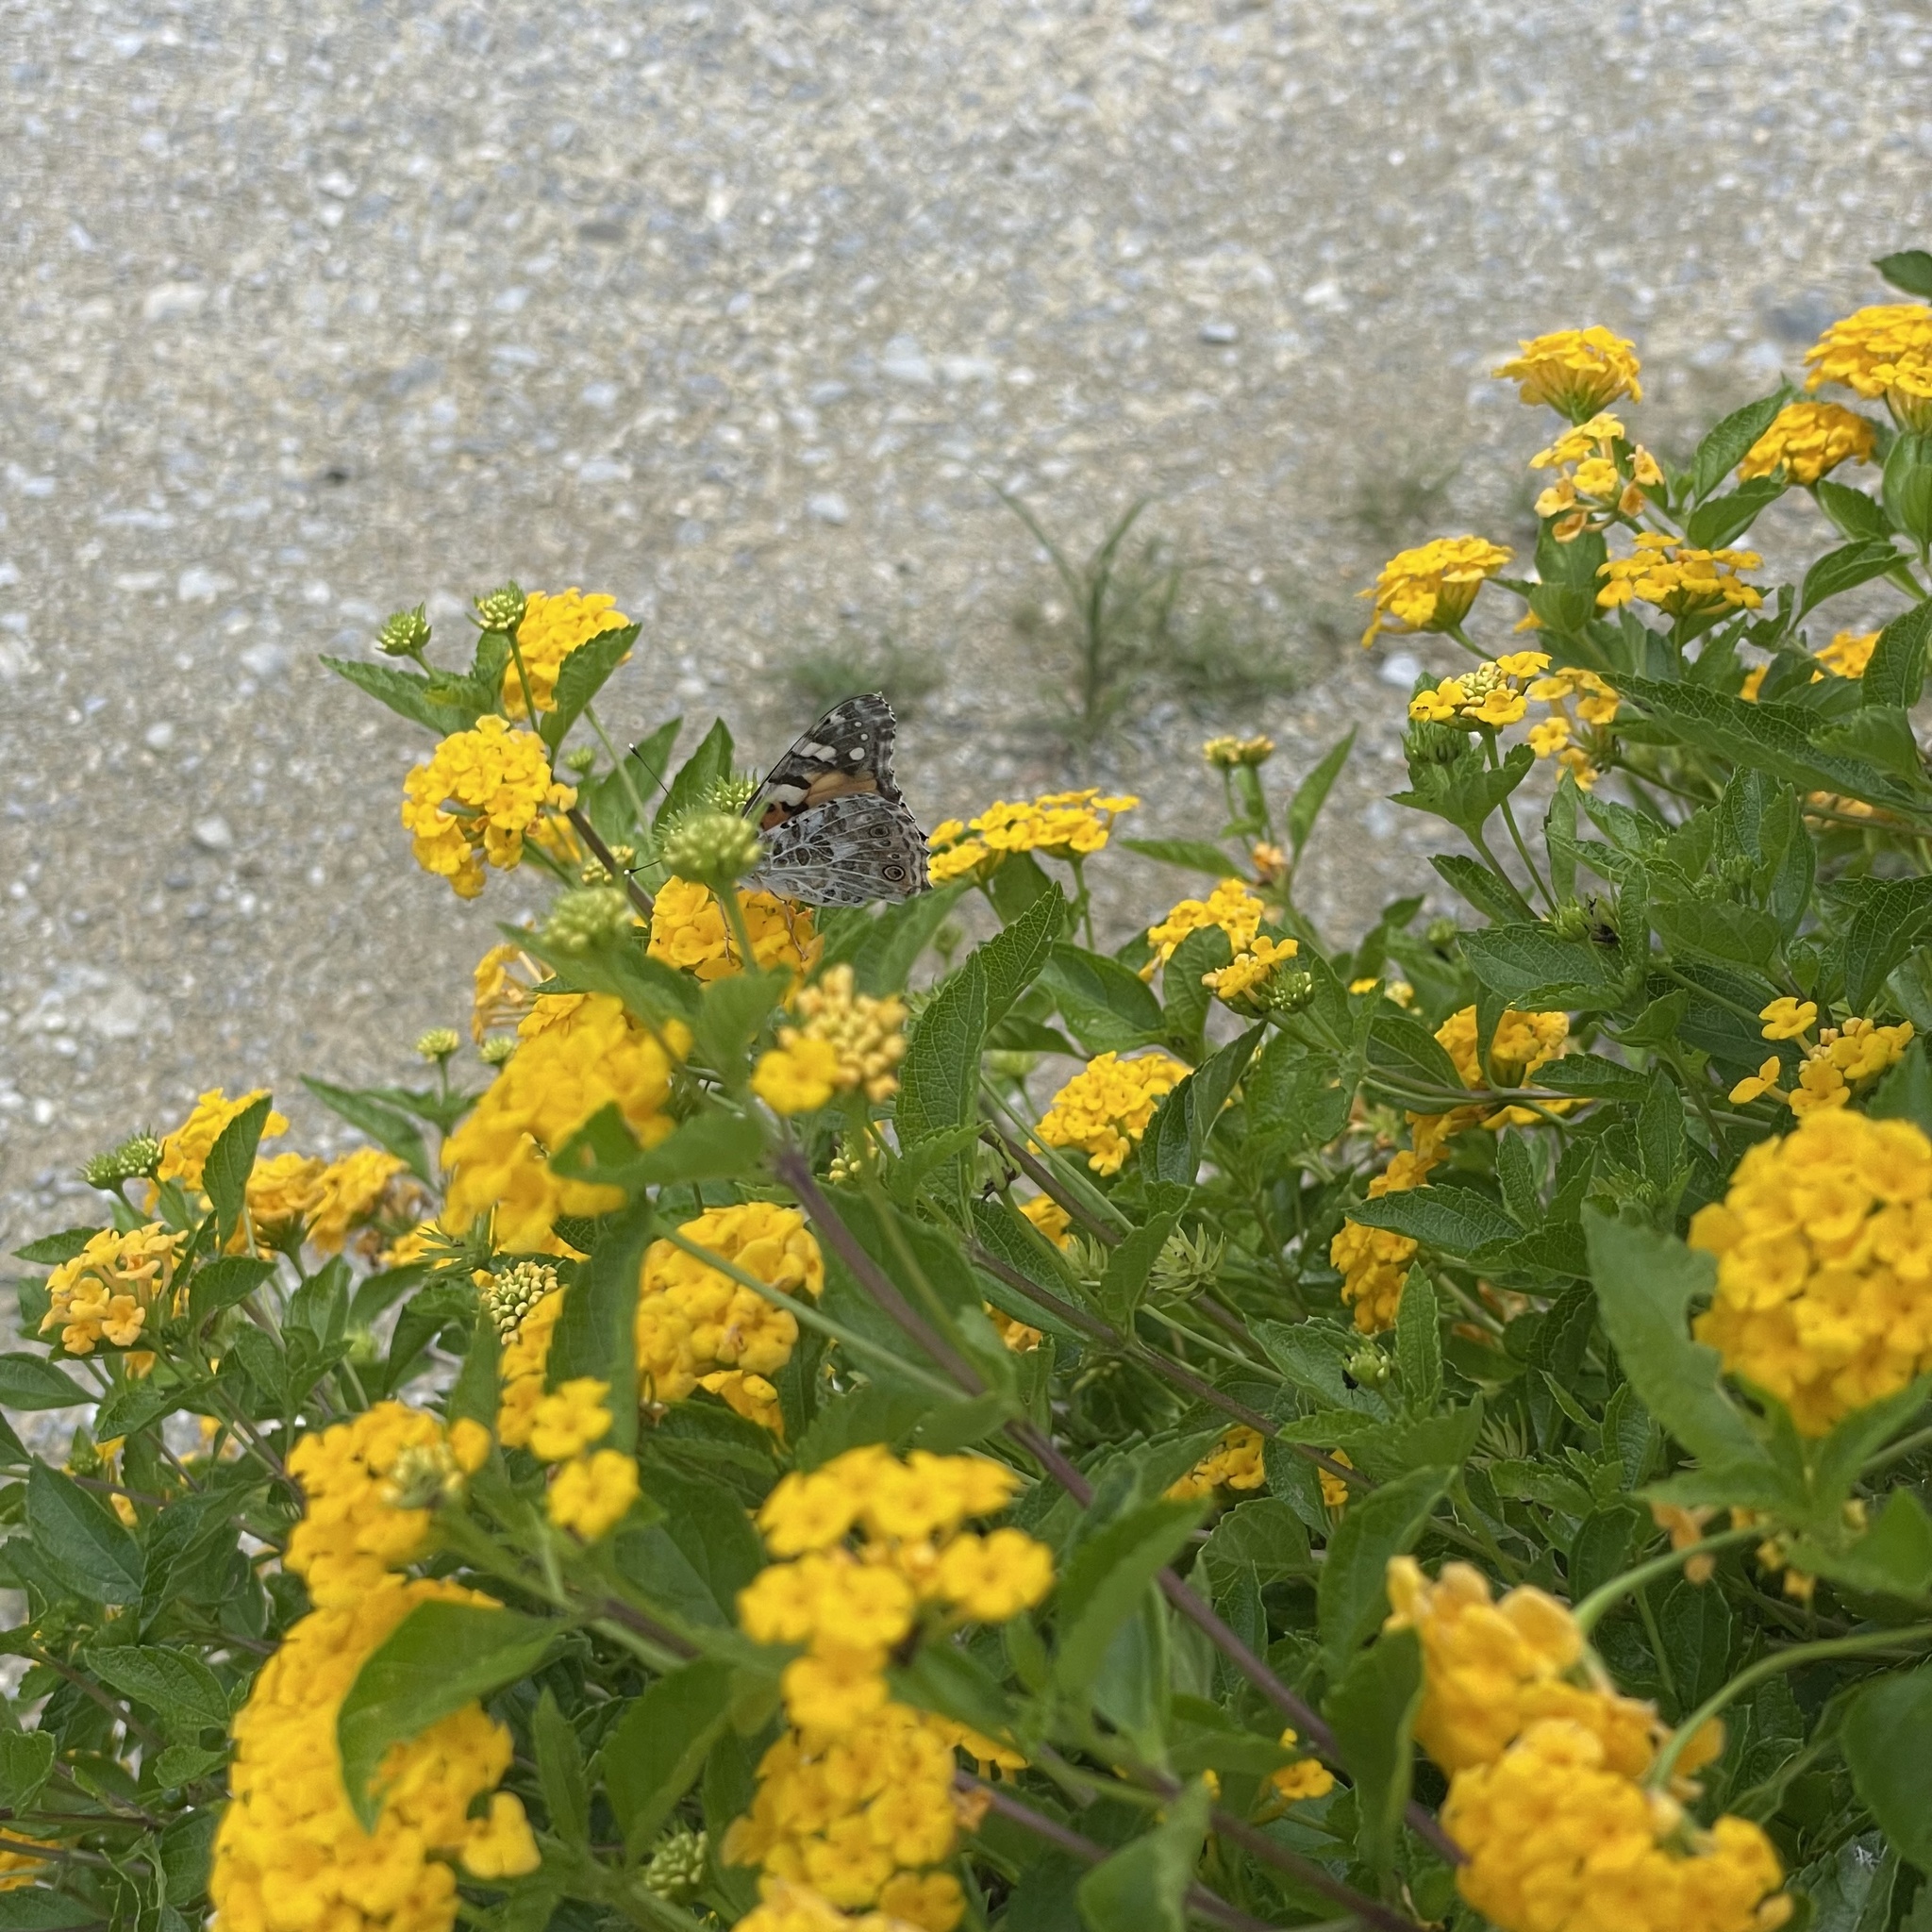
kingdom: Animalia
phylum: Arthropoda
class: Insecta
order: Lepidoptera
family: Nymphalidae
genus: Vanessa
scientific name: Vanessa cardui
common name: Painted lady
